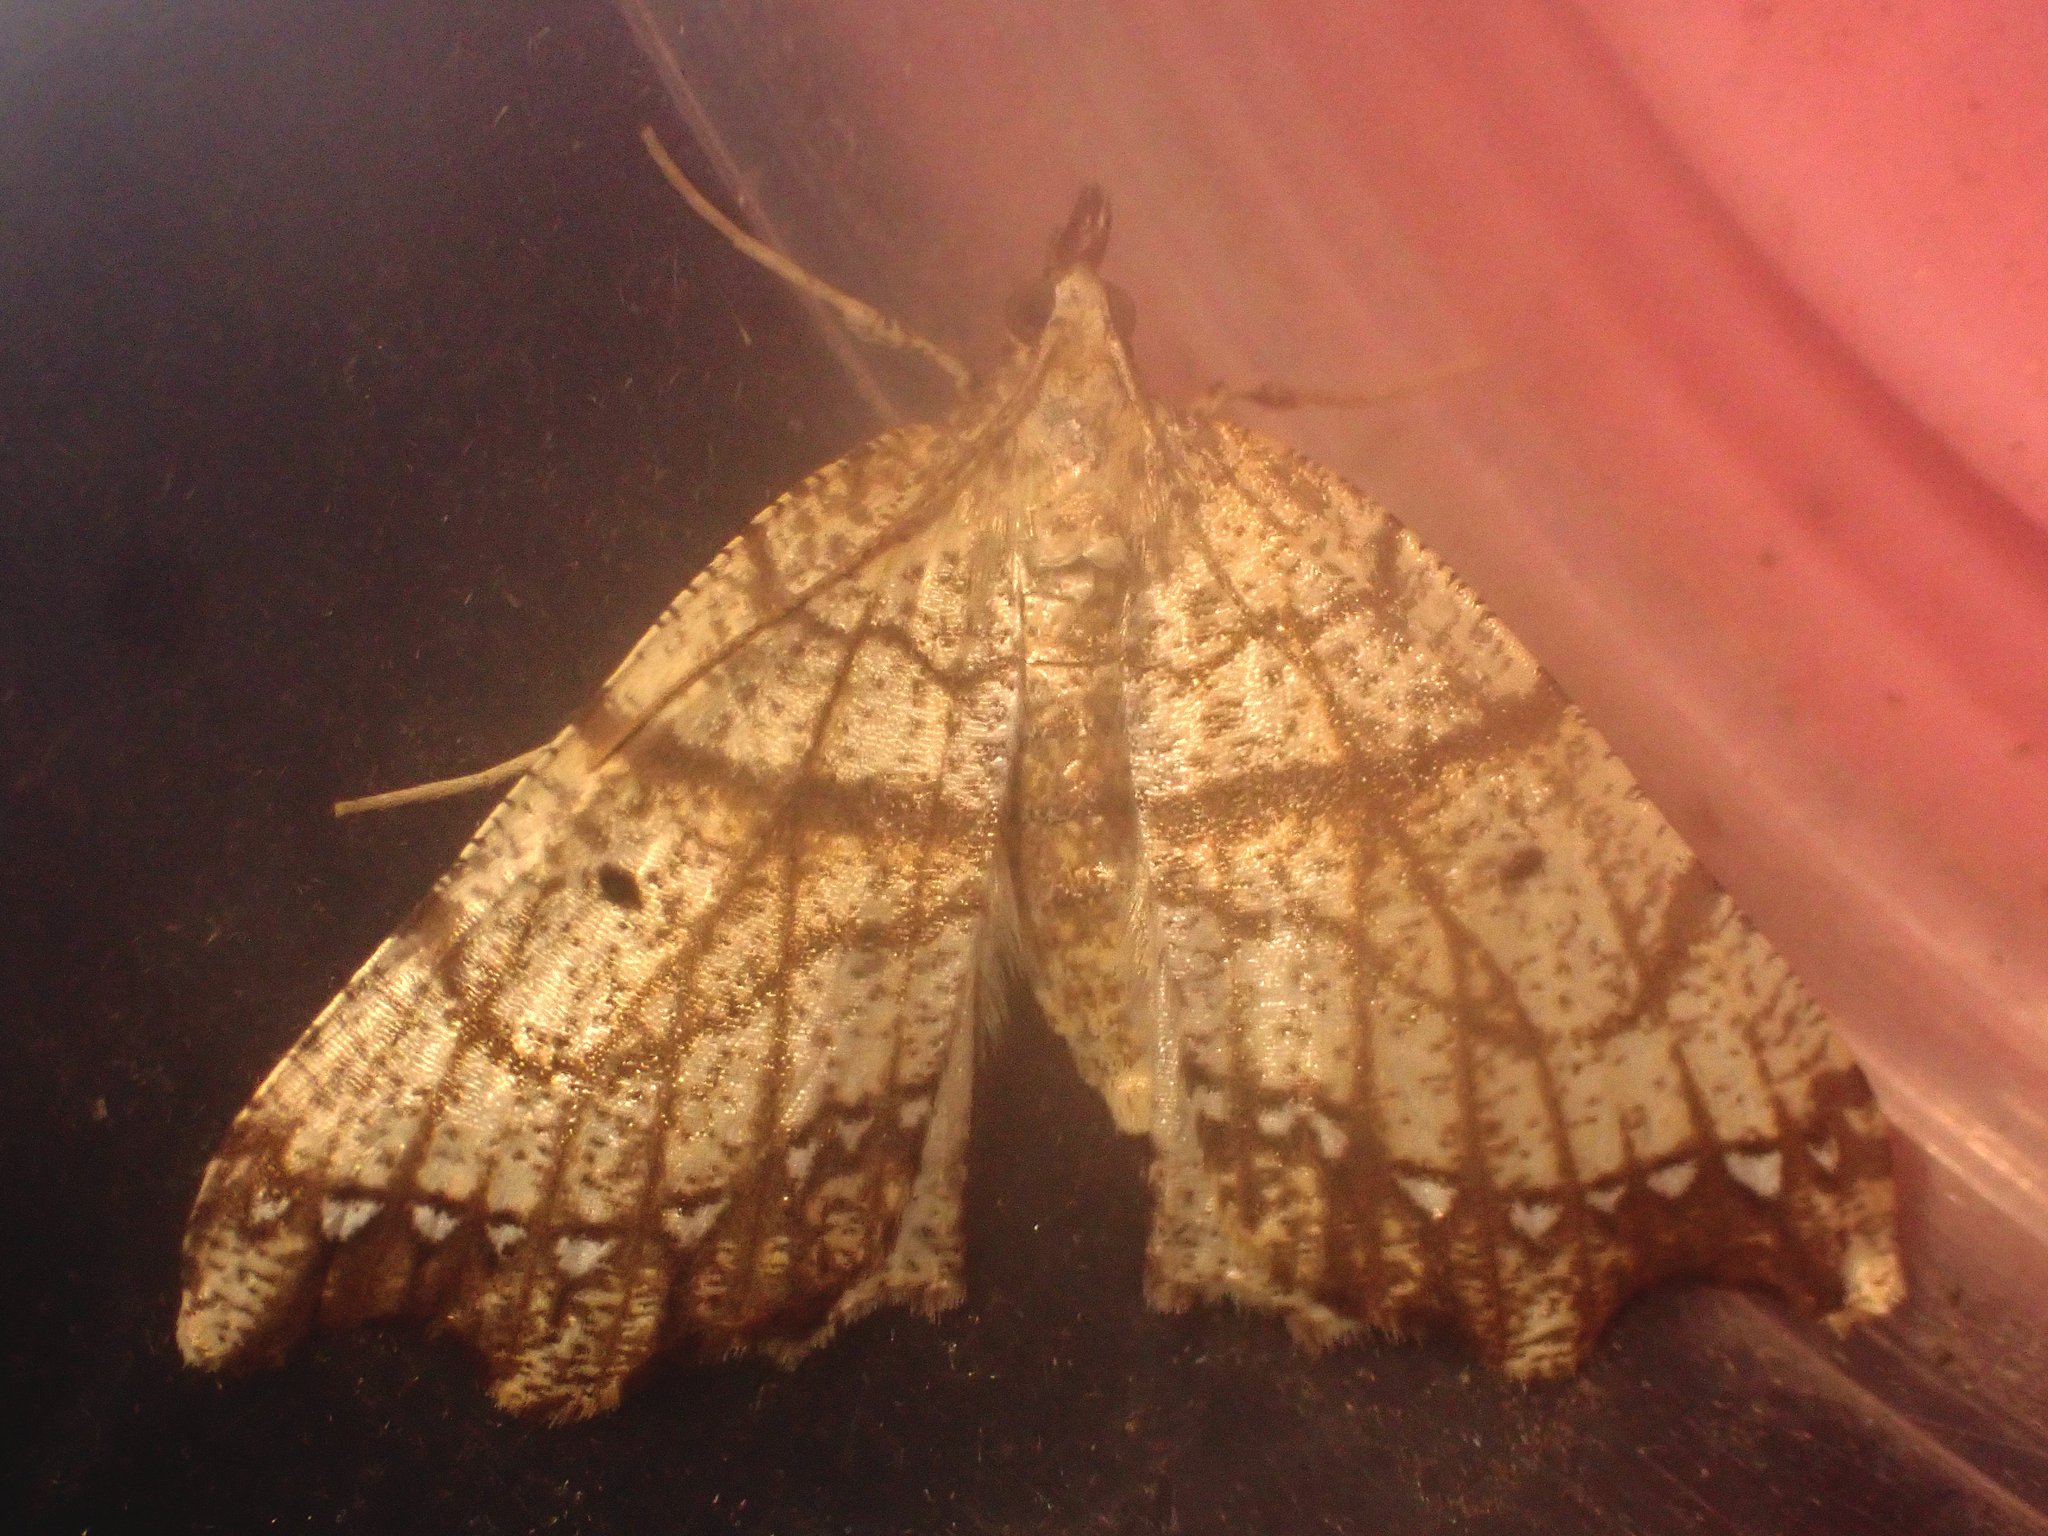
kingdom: Animalia
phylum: Arthropoda
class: Insecta
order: Lepidoptera
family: Geometridae
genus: Chalastra
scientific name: Chalastra pellurgata
